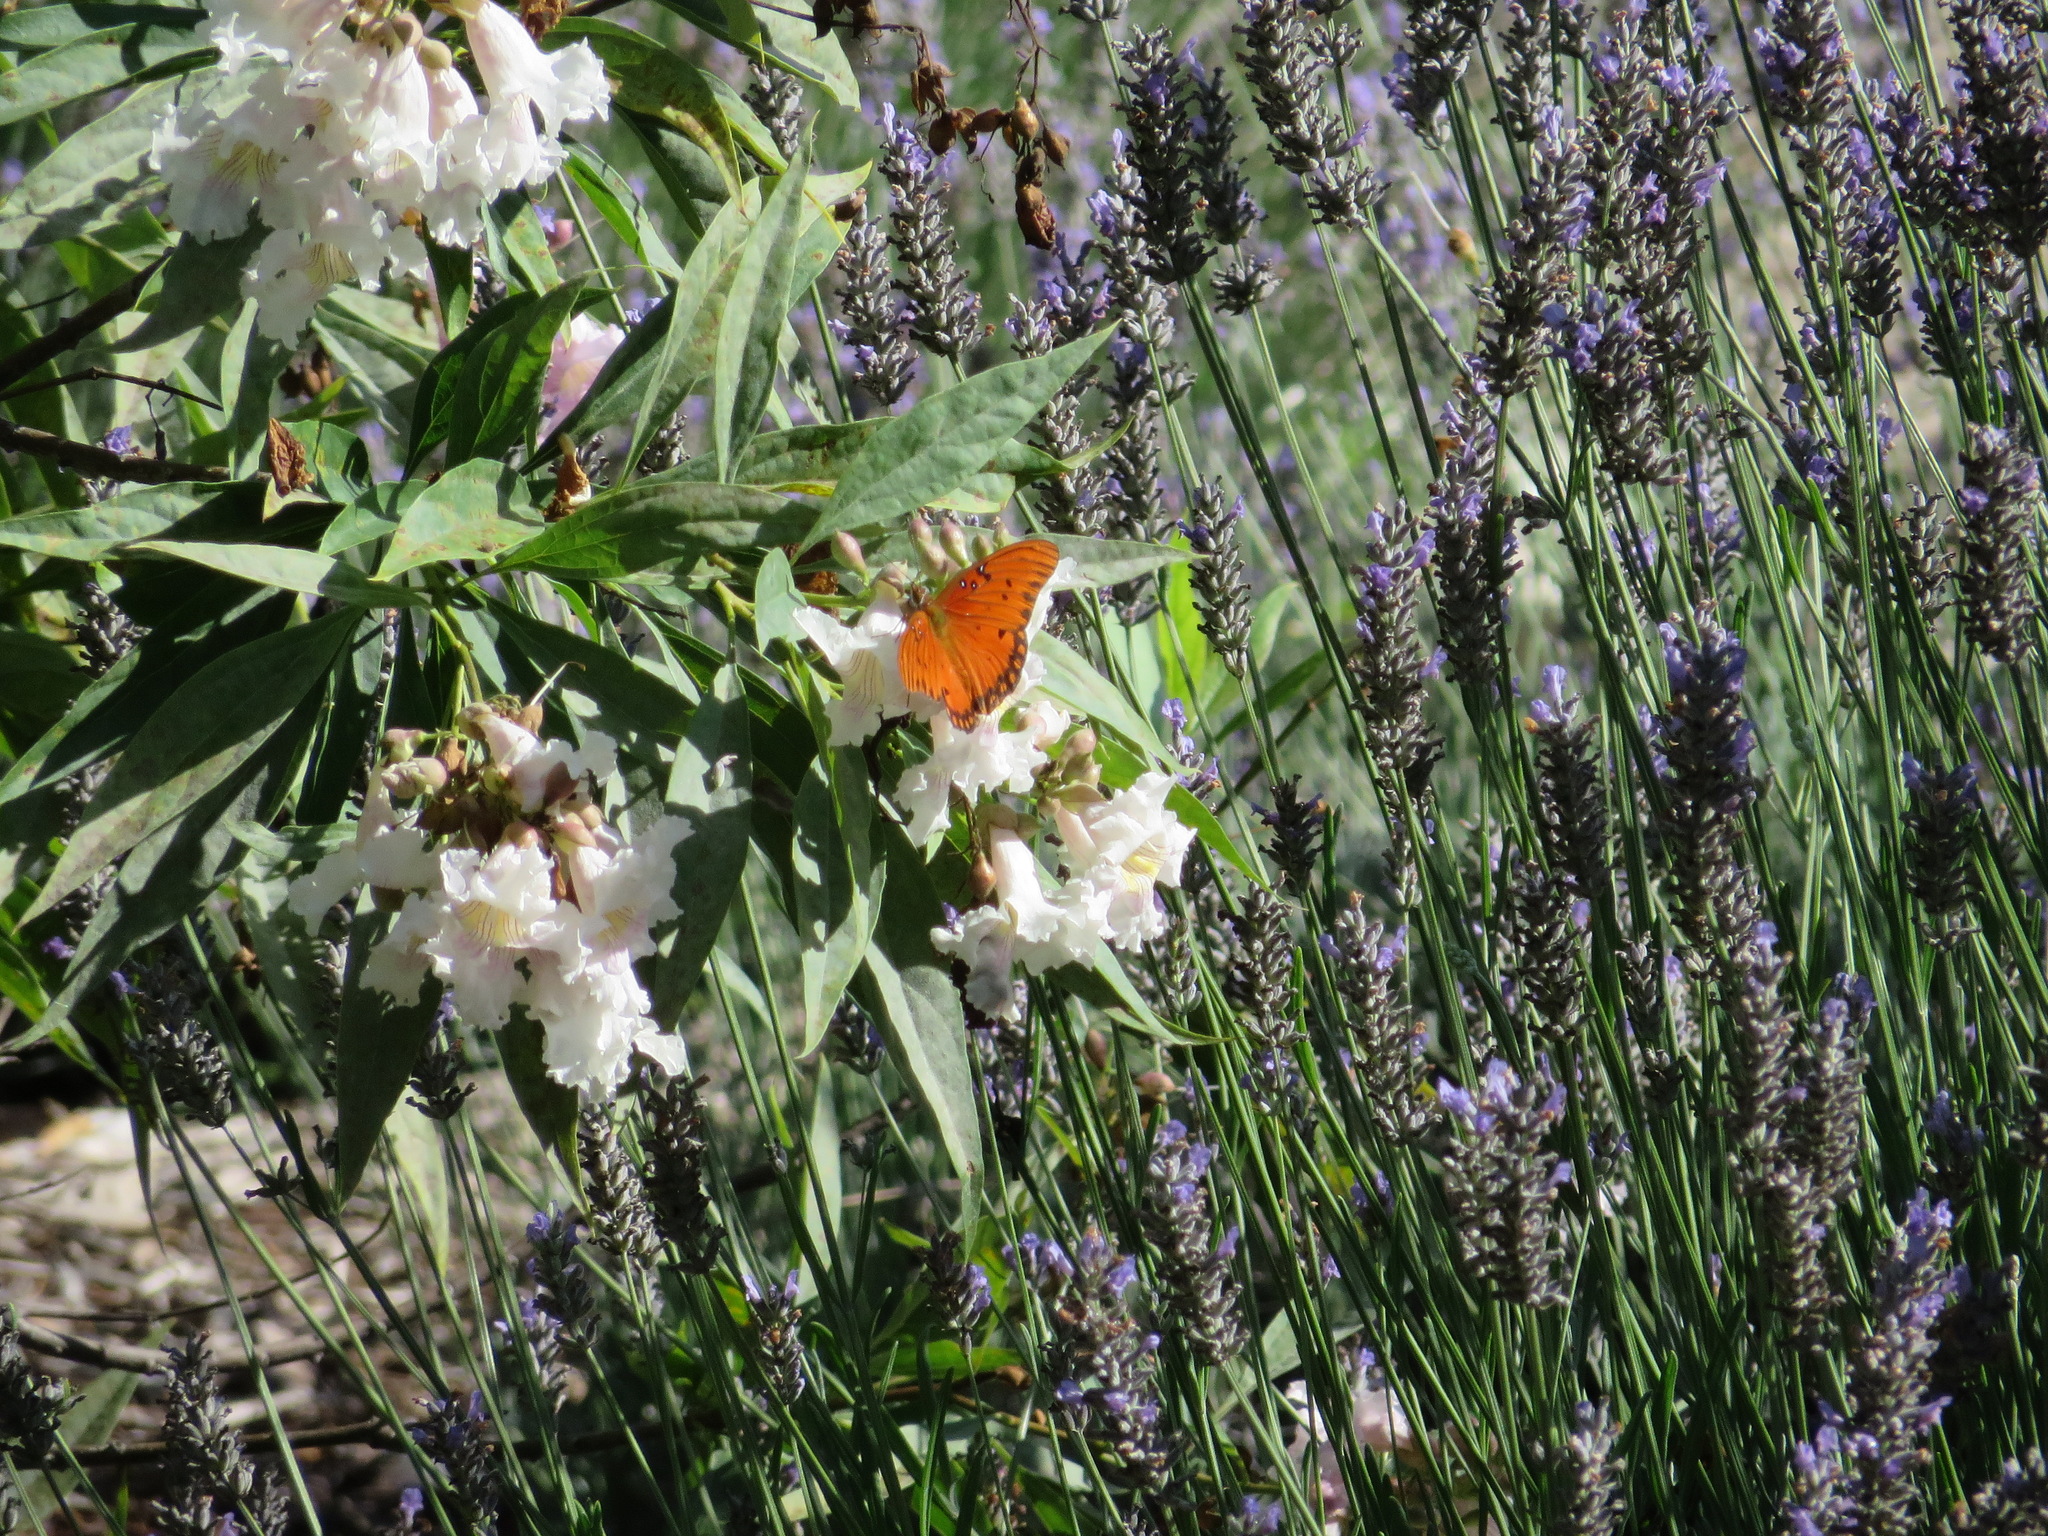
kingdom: Animalia
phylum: Arthropoda
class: Insecta
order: Lepidoptera
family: Nymphalidae
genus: Dione
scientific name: Dione vanillae
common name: Gulf fritillary
